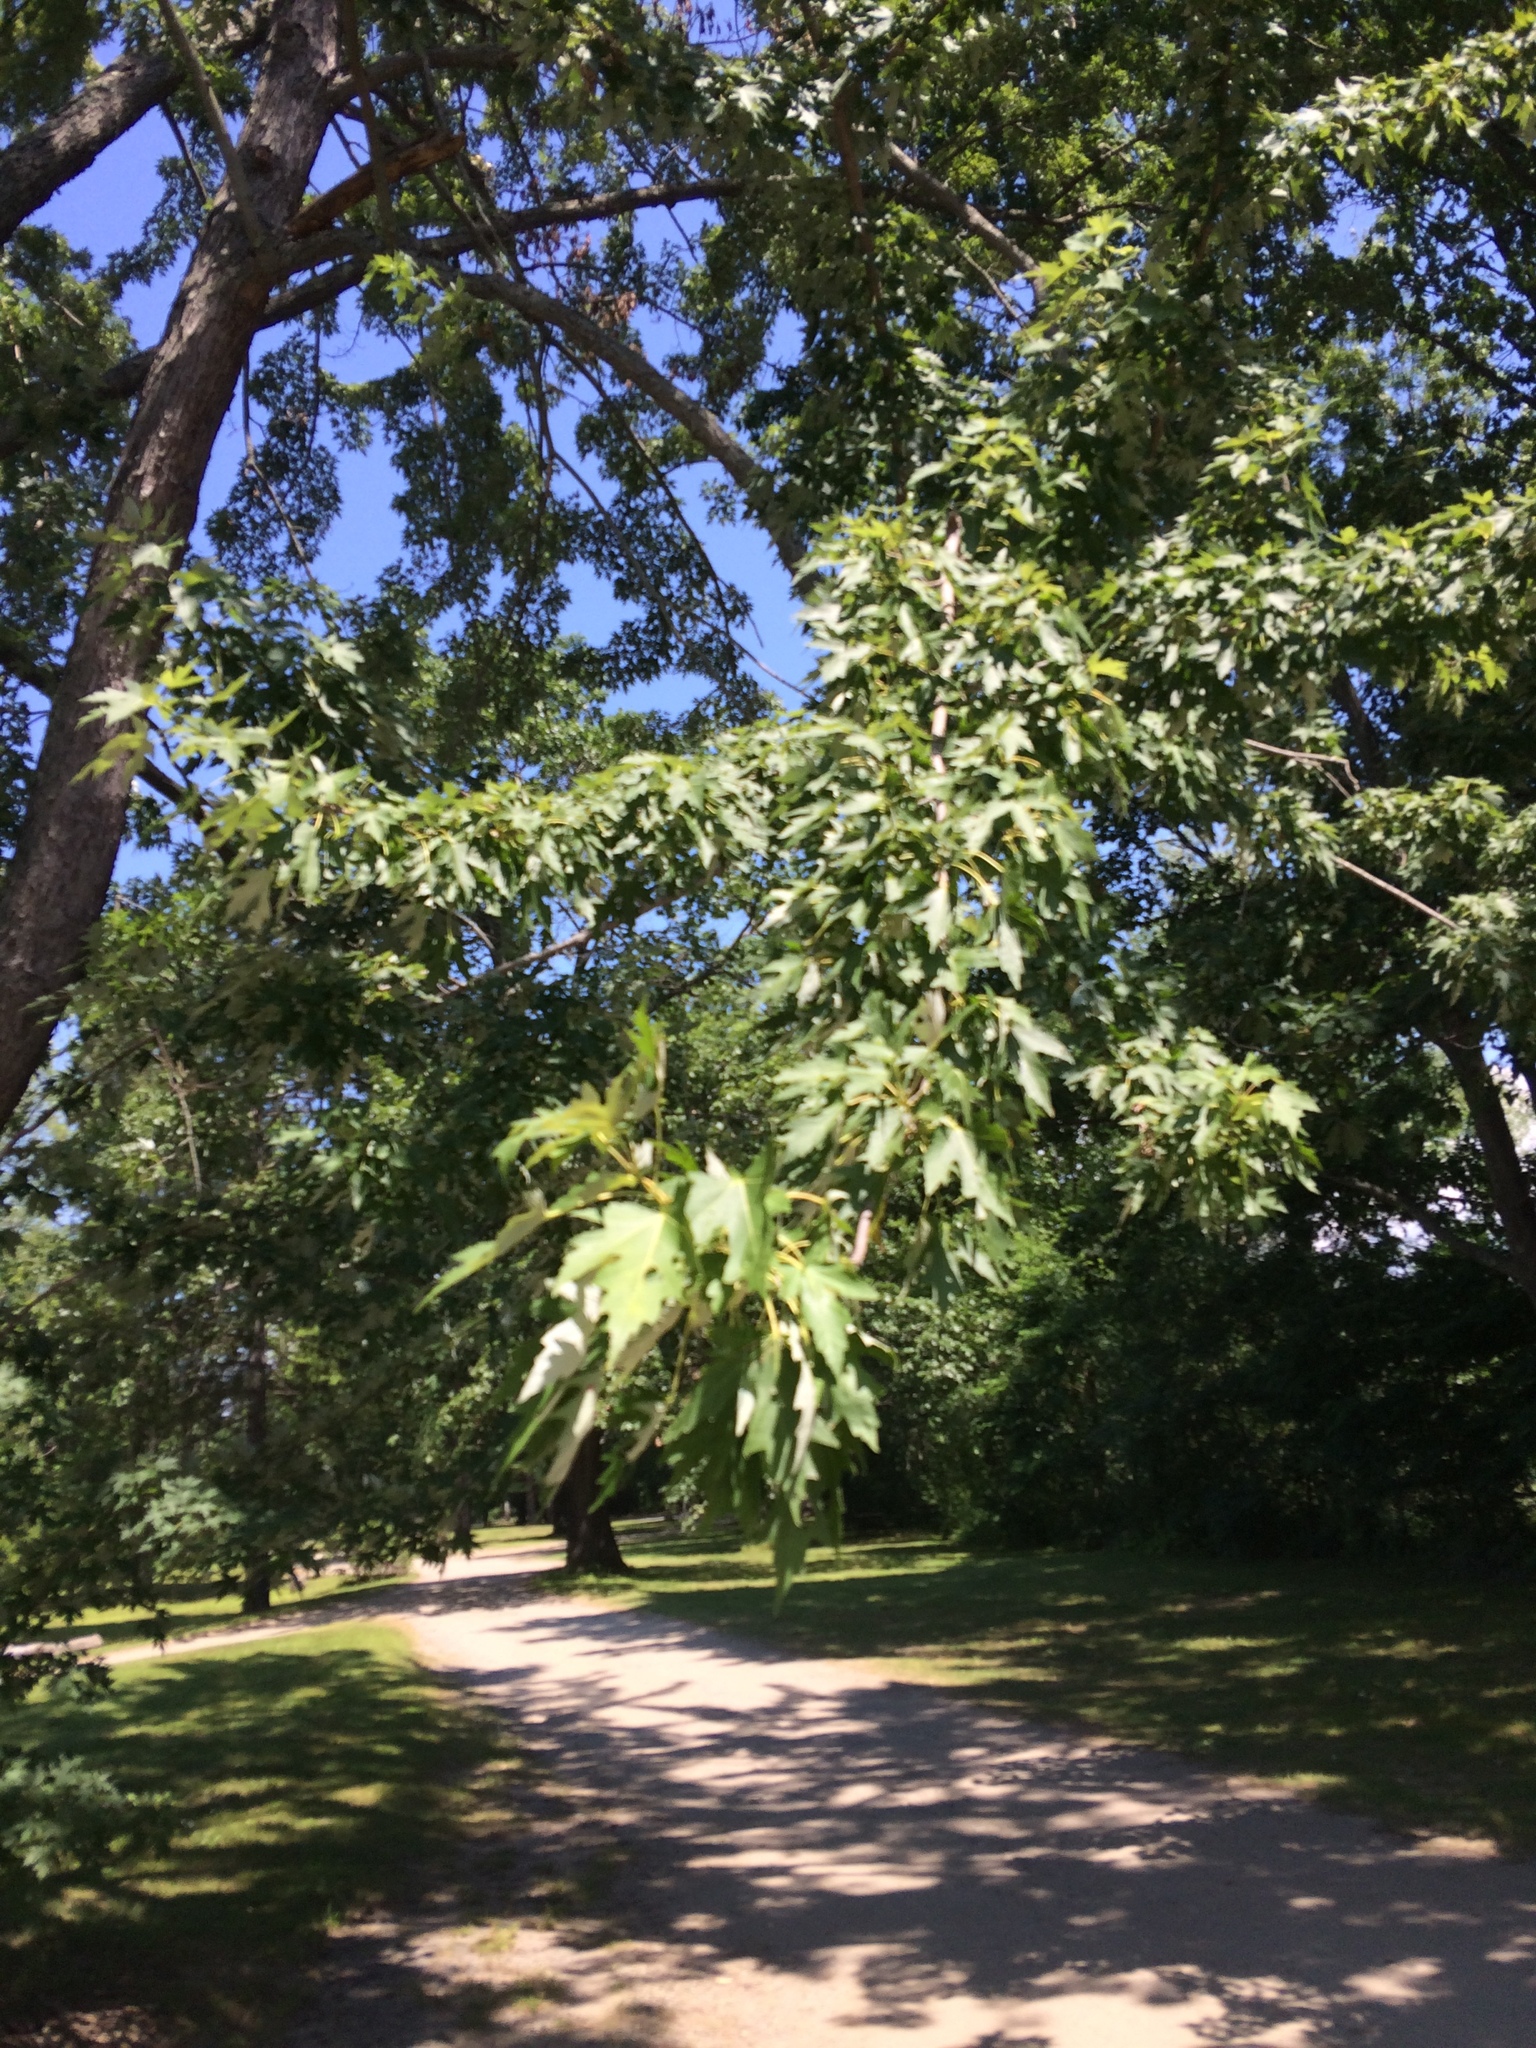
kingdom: Plantae
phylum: Tracheophyta
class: Magnoliopsida
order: Sapindales
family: Sapindaceae
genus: Acer
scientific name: Acer saccharinum
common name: Silver maple
